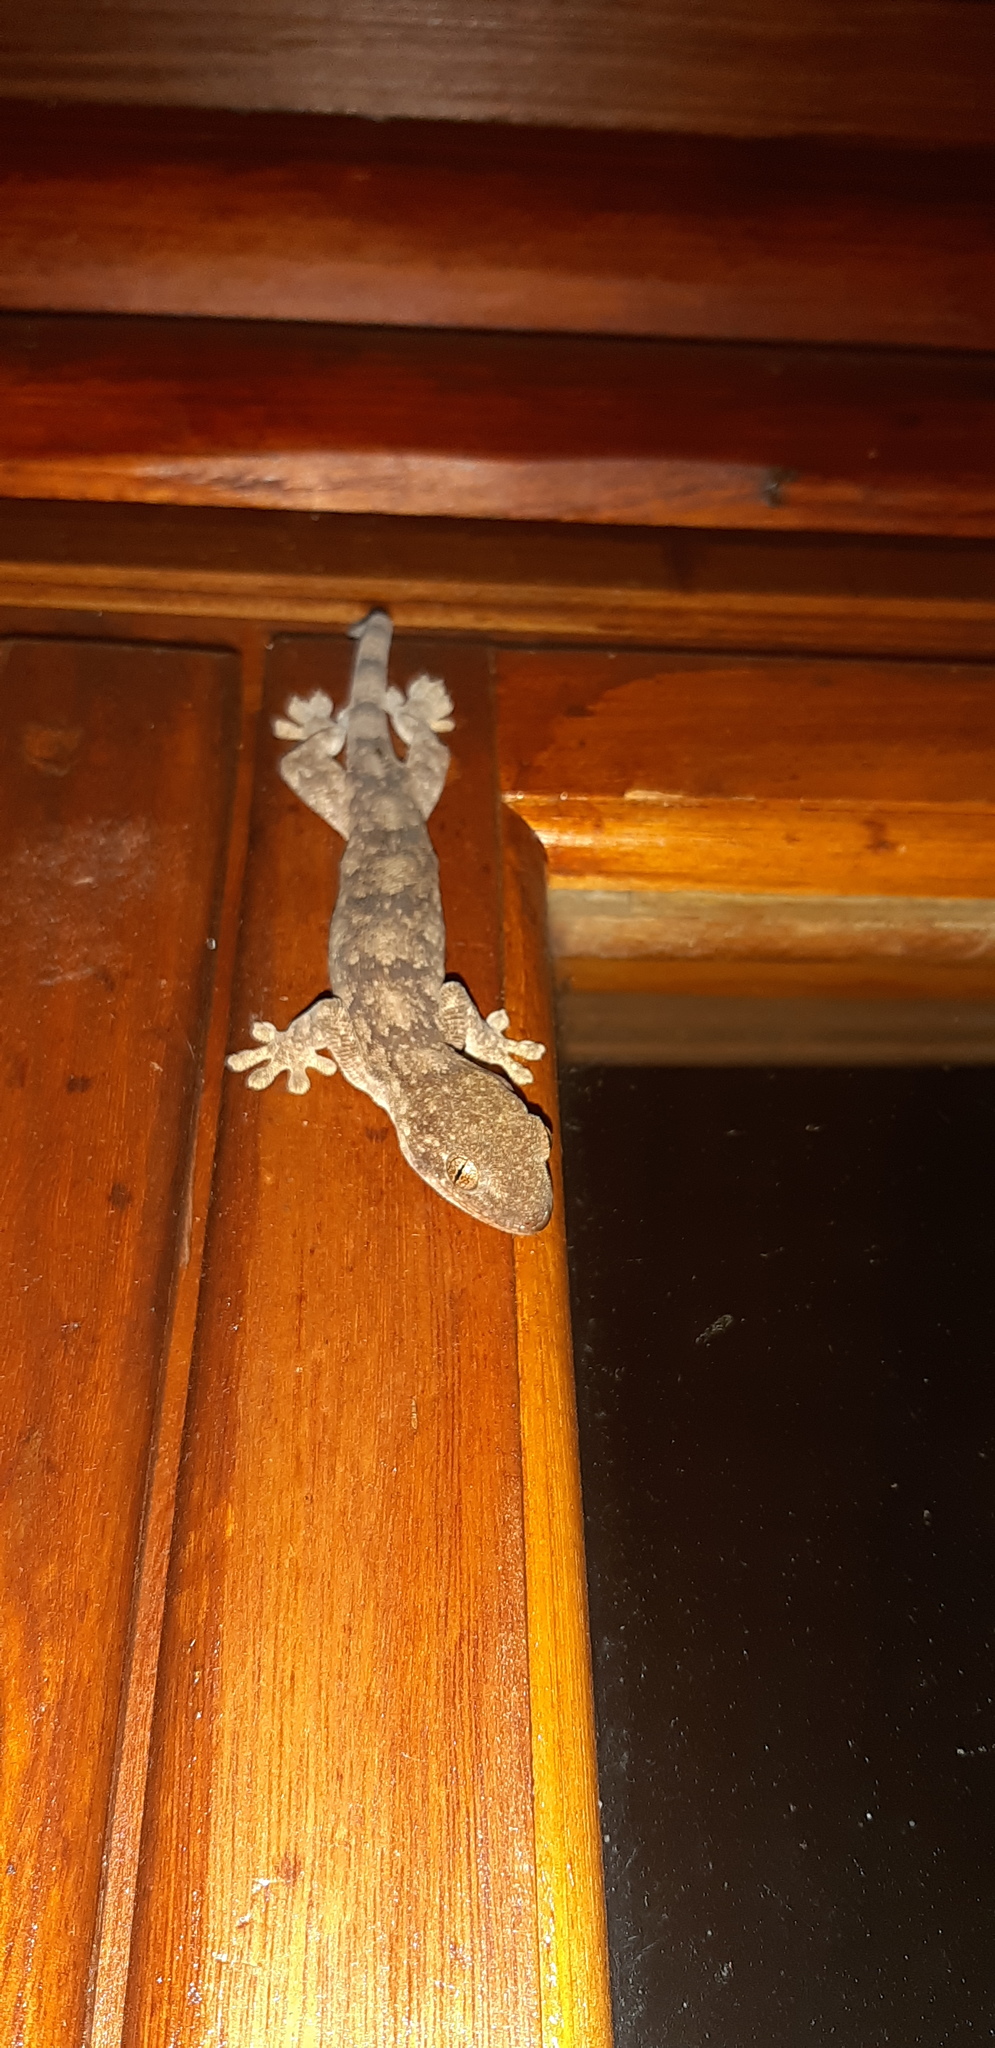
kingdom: Animalia
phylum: Chordata
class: Squamata
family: Gekkonidae
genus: Homopholis
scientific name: Homopholis walbergii
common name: Wahlberg’s velvet gecko
